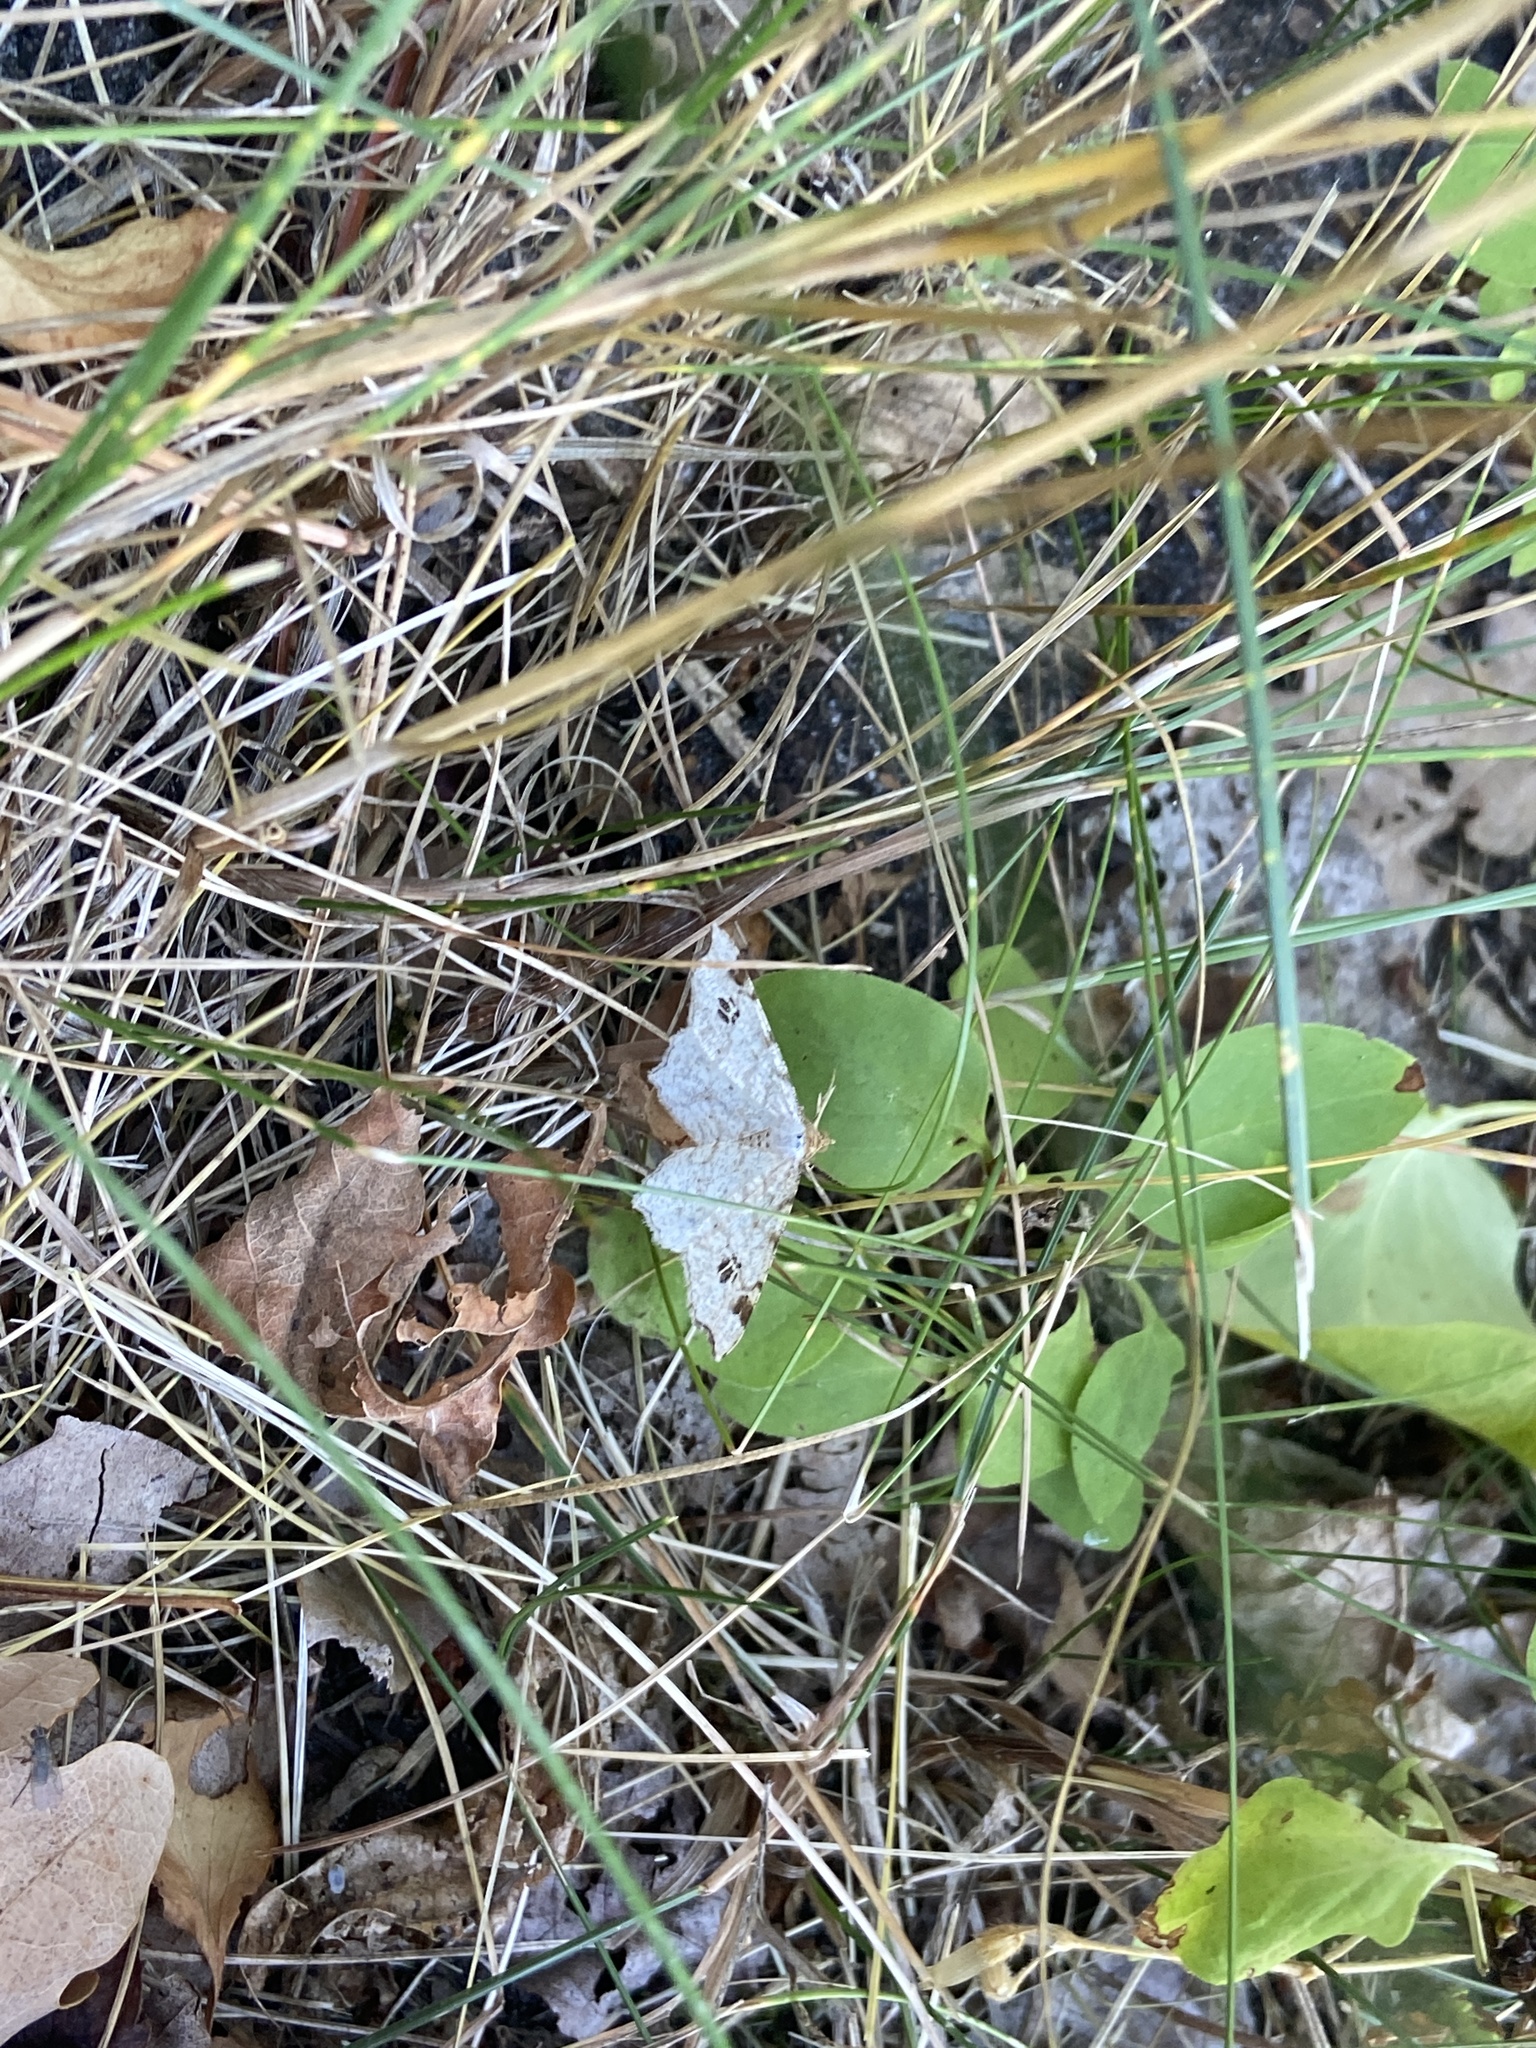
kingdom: Animalia
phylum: Arthropoda
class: Insecta
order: Lepidoptera
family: Geometridae
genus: Macaria
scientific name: Macaria notata
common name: Peacock moth
